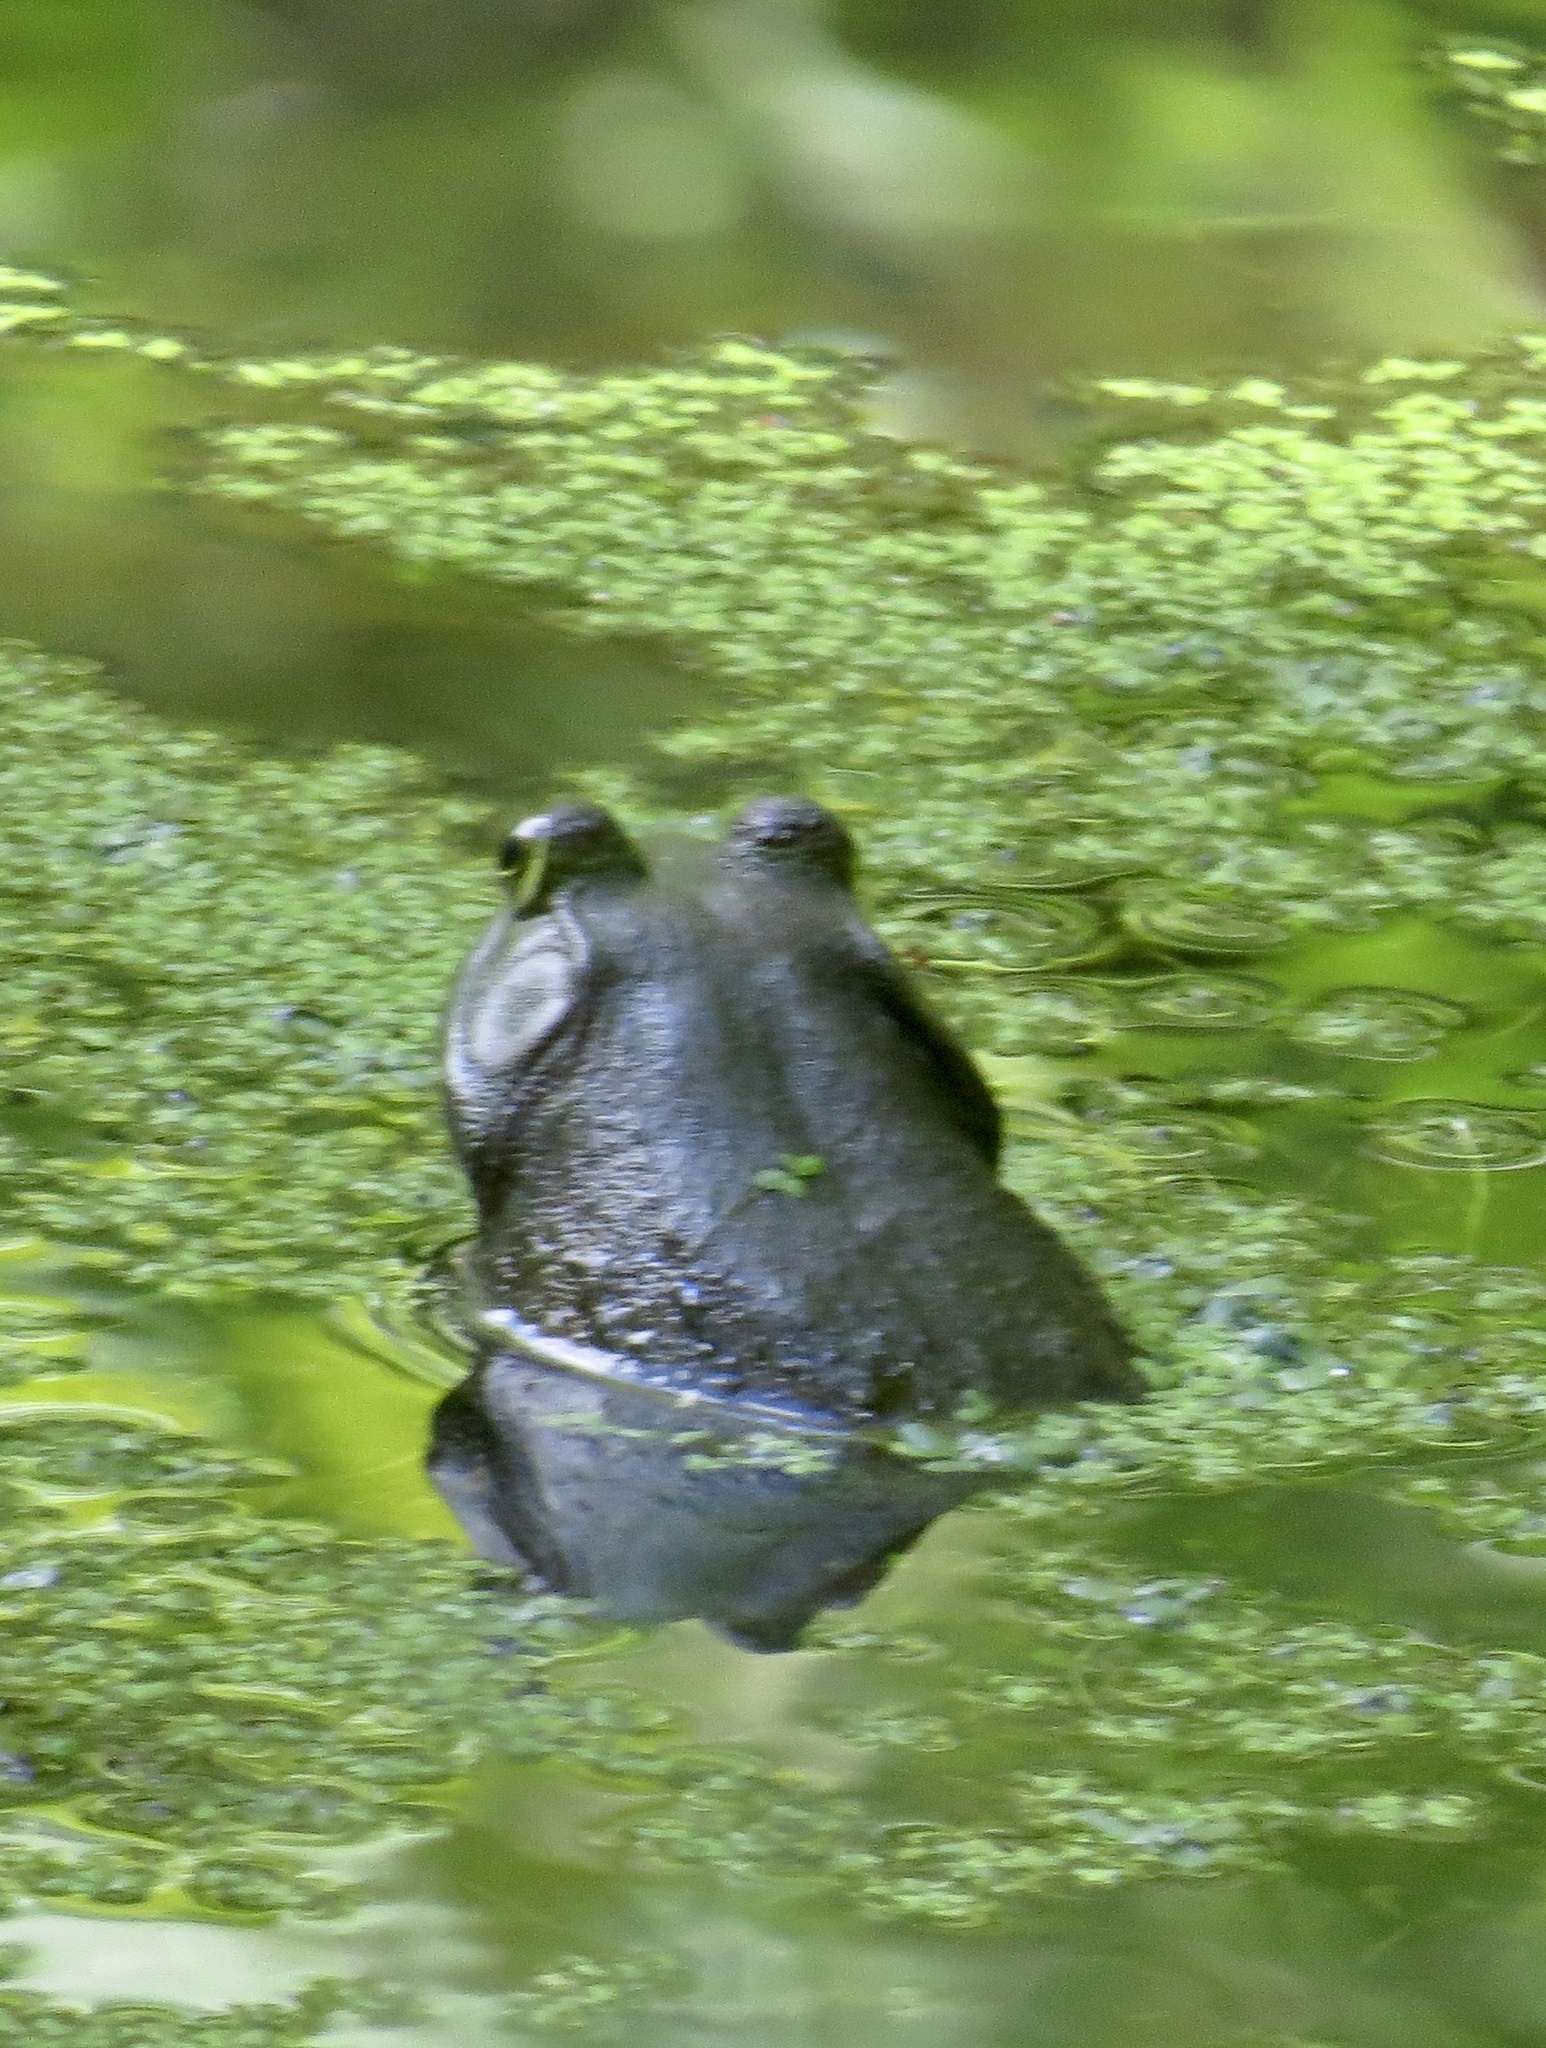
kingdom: Animalia
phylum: Chordata
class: Amphibia
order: Anura
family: Ranidae
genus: Lithobates
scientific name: Lithobates catesbeianus
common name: American bullfrog
